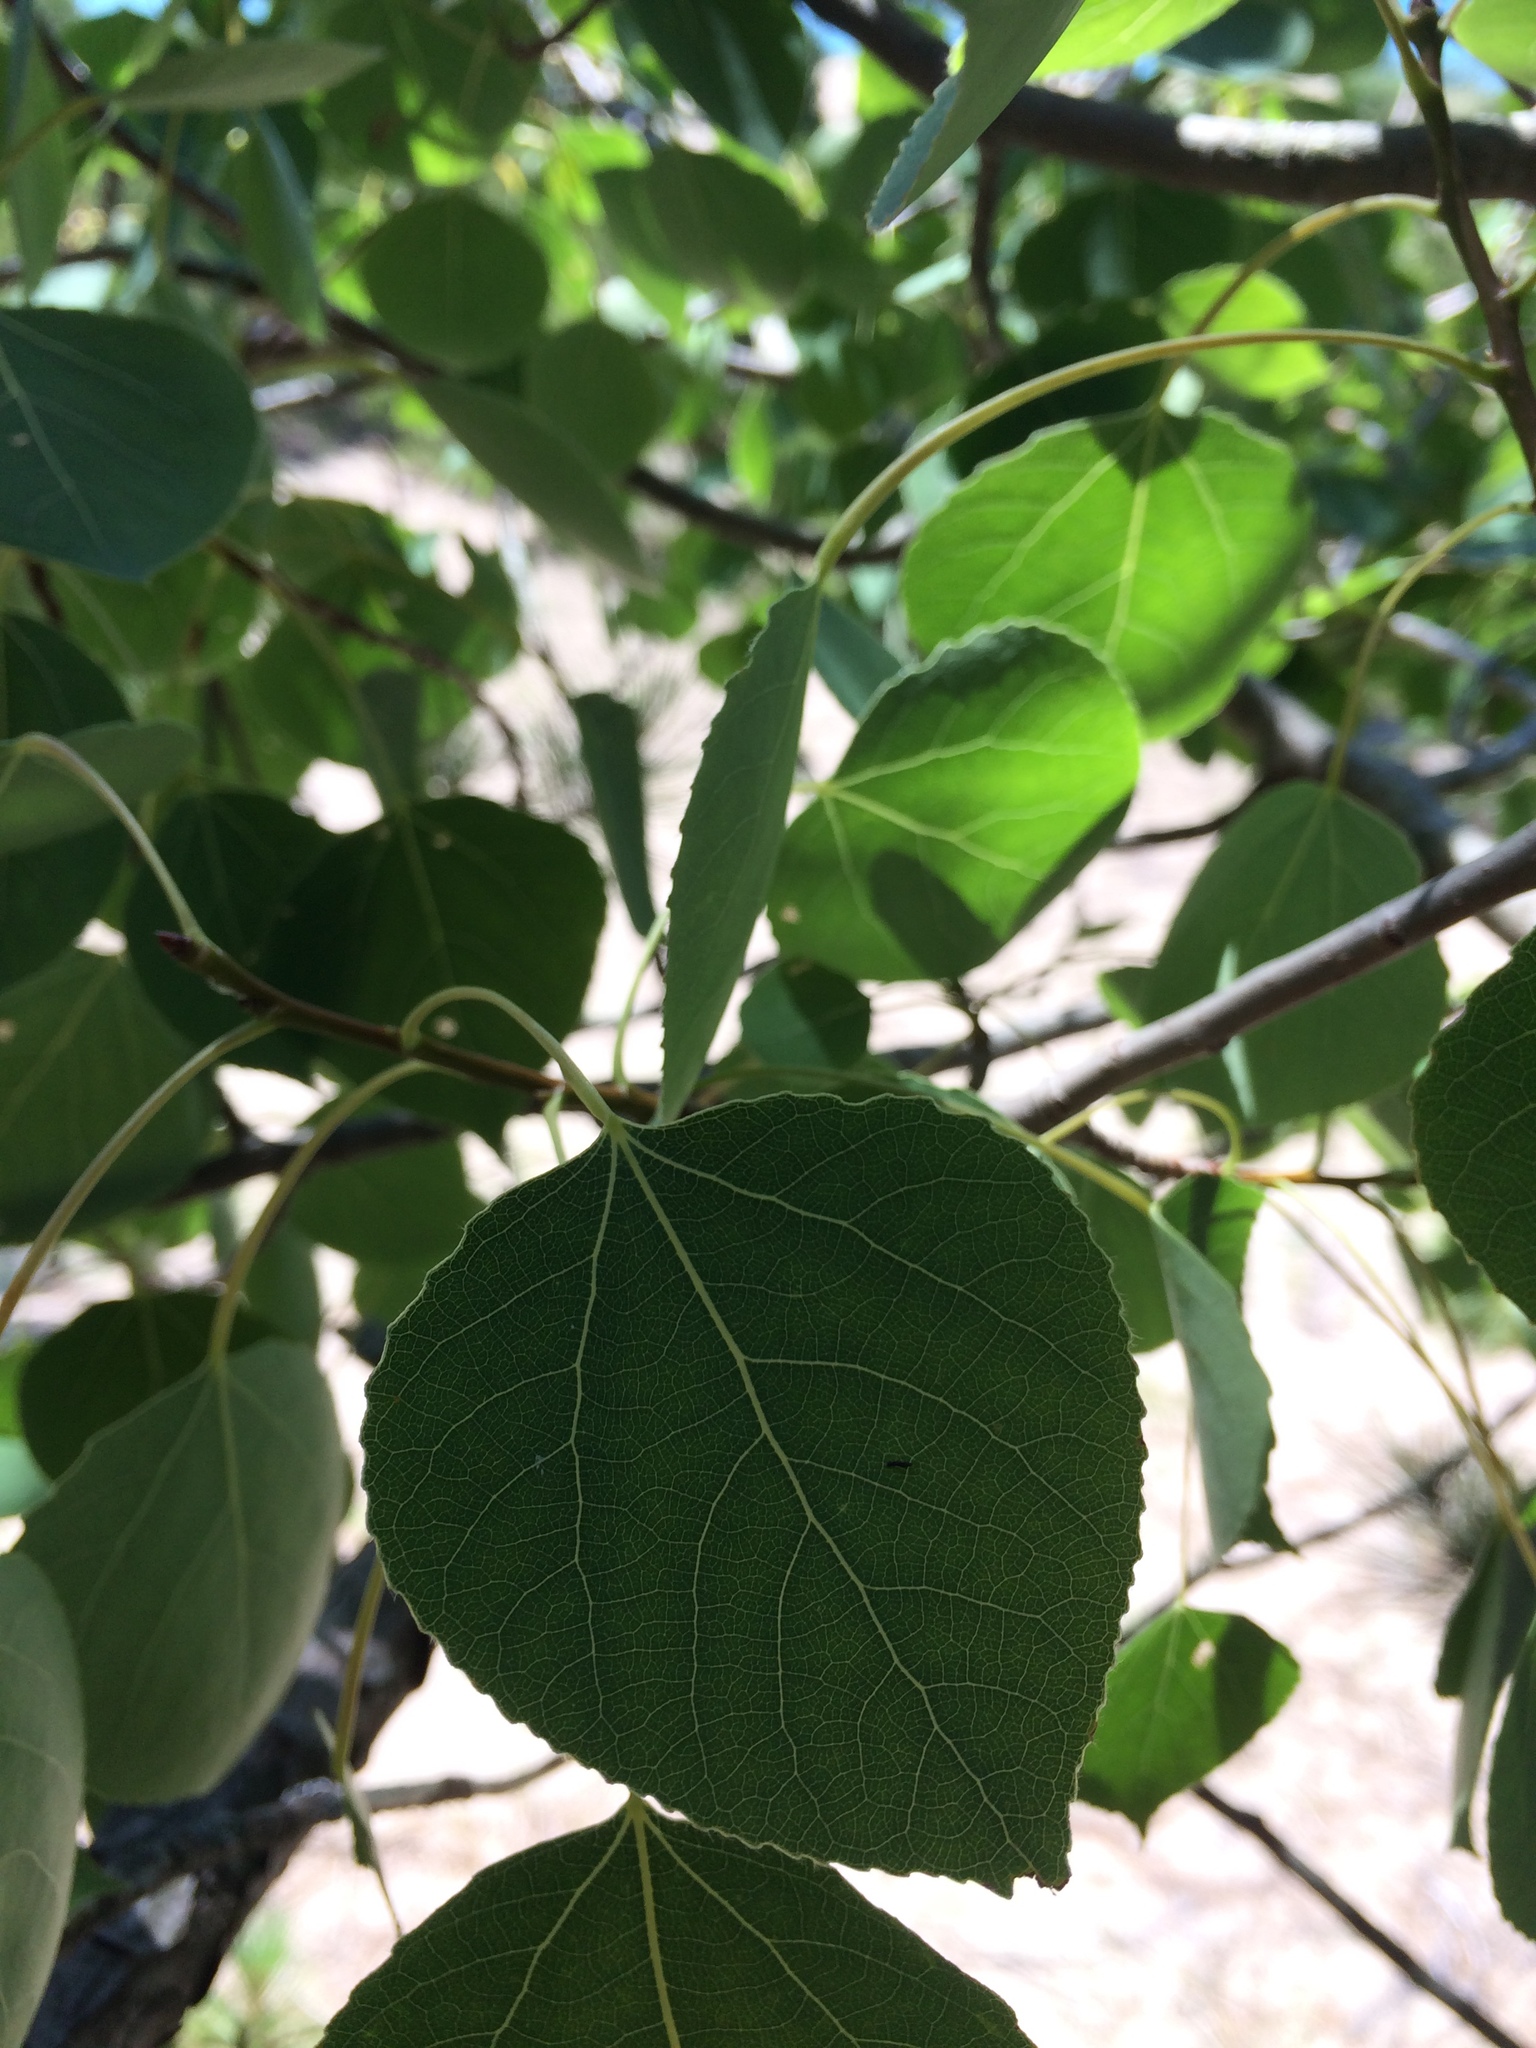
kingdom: Plantae
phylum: Tracheophyta
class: Magnoliopsida
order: Malpighiales
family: Salicaceae
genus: Populus
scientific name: Populus tremuloides
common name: Quaking aspen
